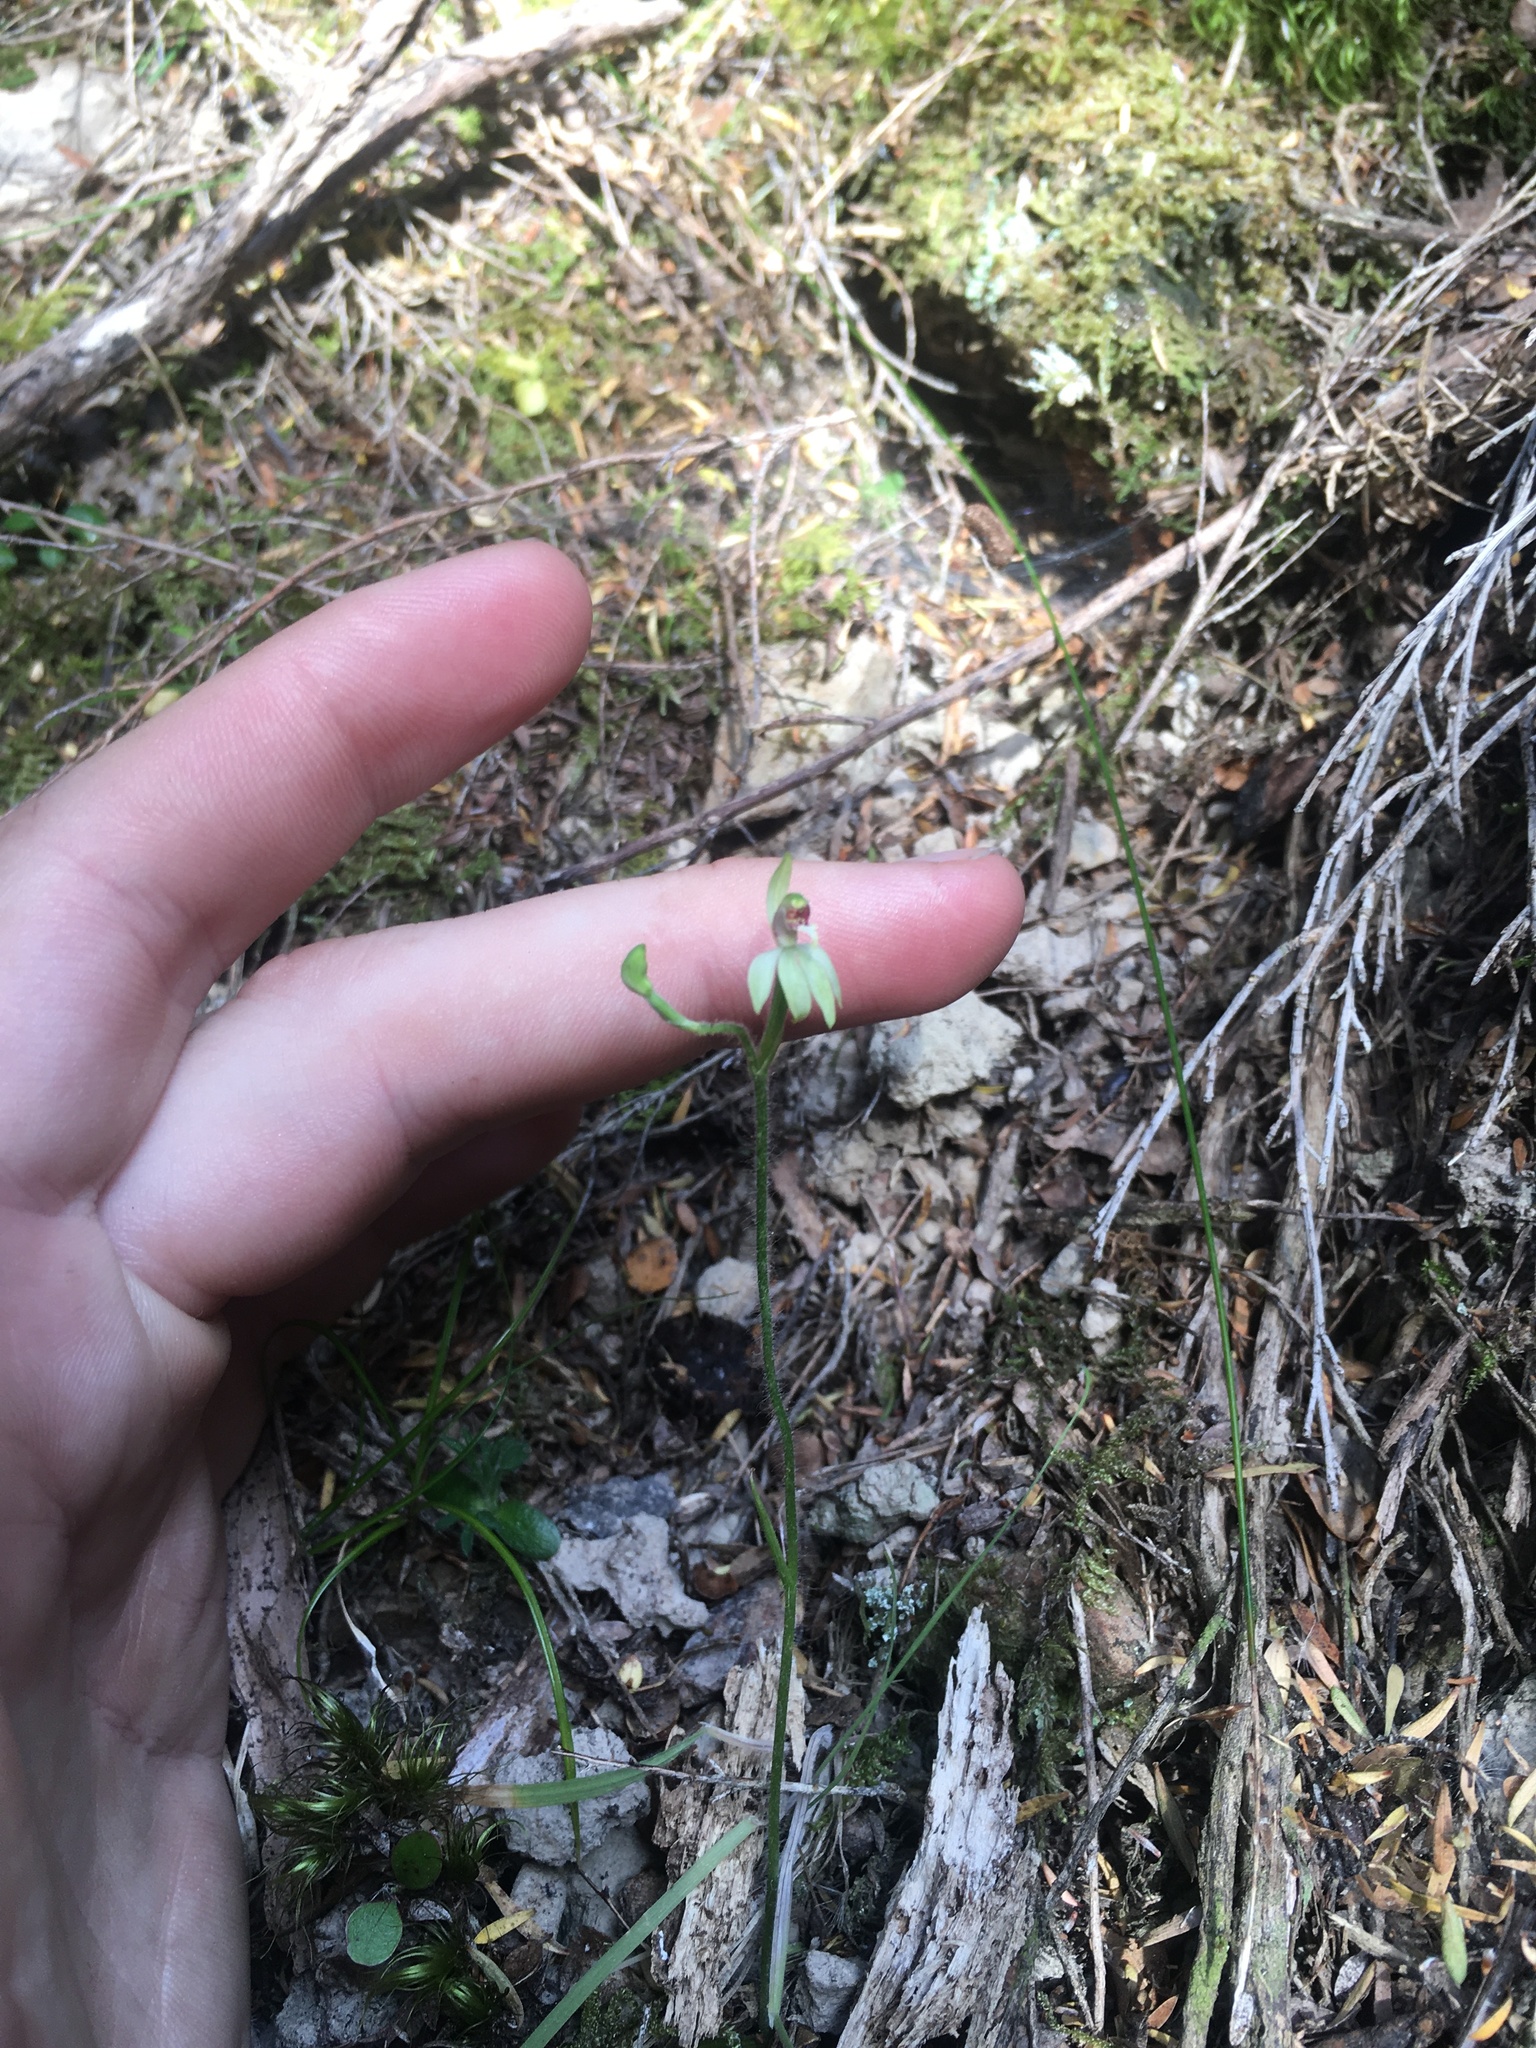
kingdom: Plantae
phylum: Tracheophyta
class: Liliopsida
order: Asparagales
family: Orchidaceae
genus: Caladenia
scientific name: Caladenia chlorostyla
